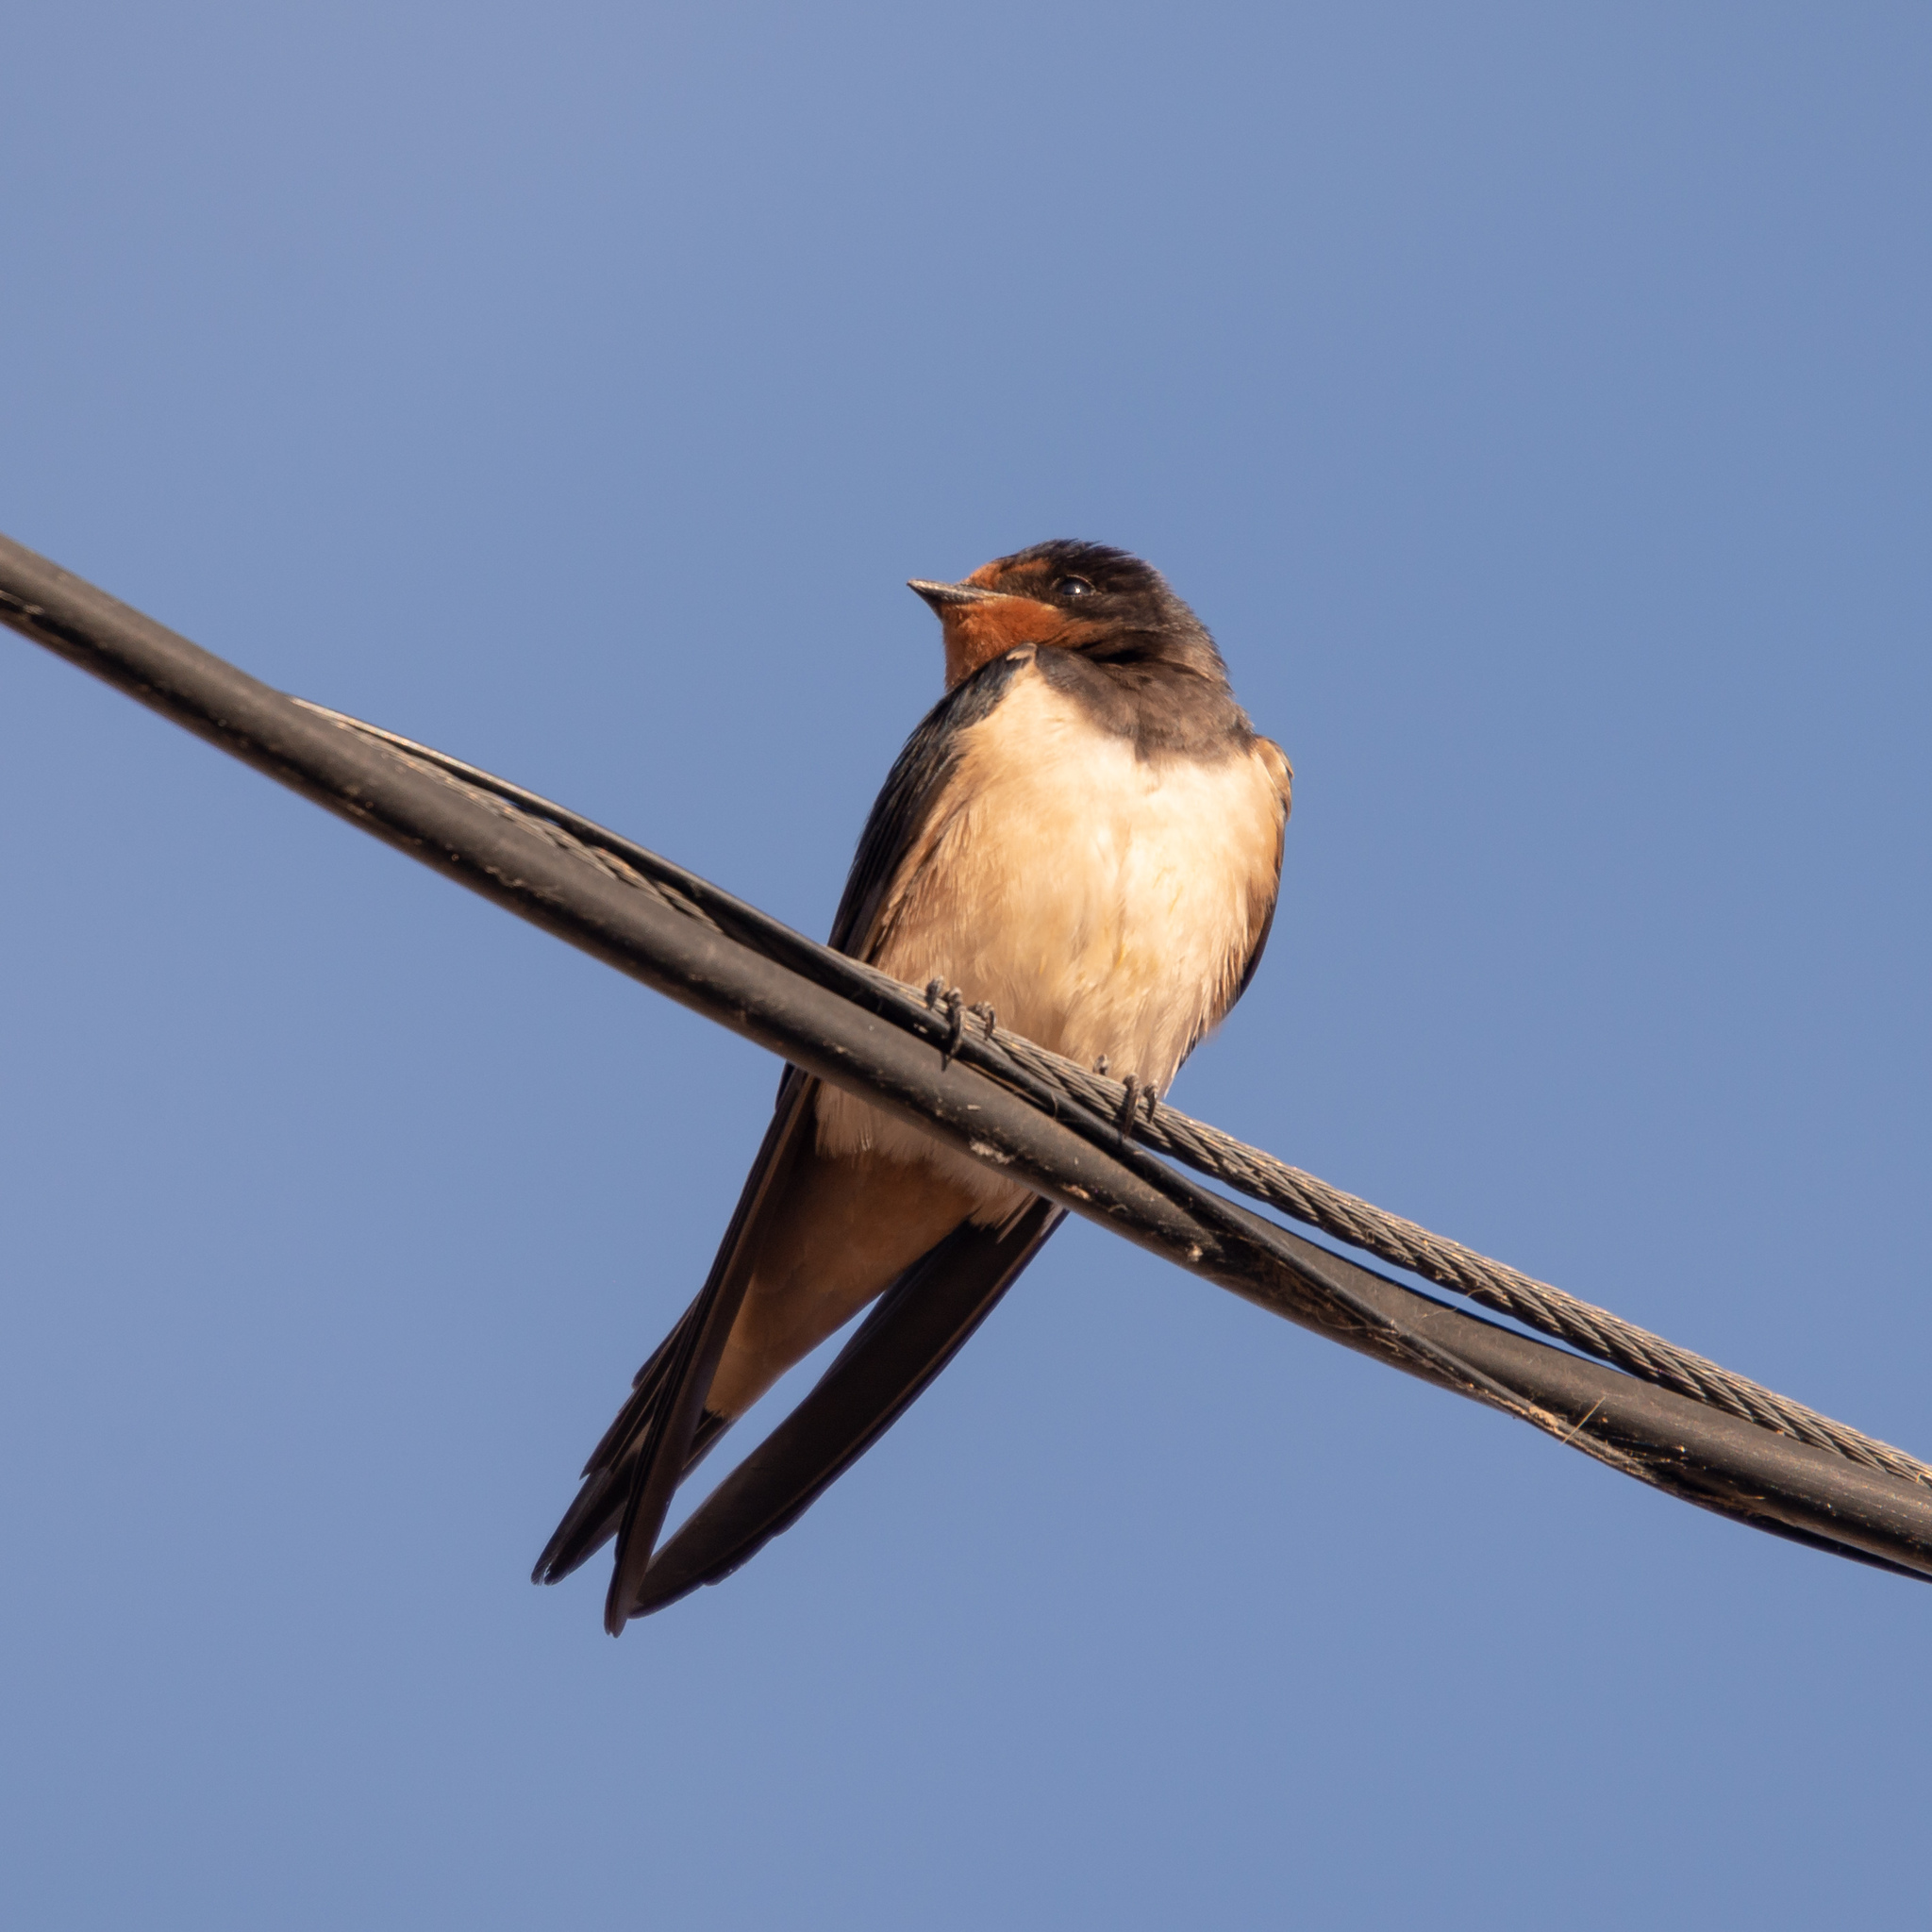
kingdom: Animalia
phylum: Chordata
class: Aves
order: Passeriformes
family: Hirundinidae
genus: Hirundo
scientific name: Hirundo rustica
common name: Barn swallow
